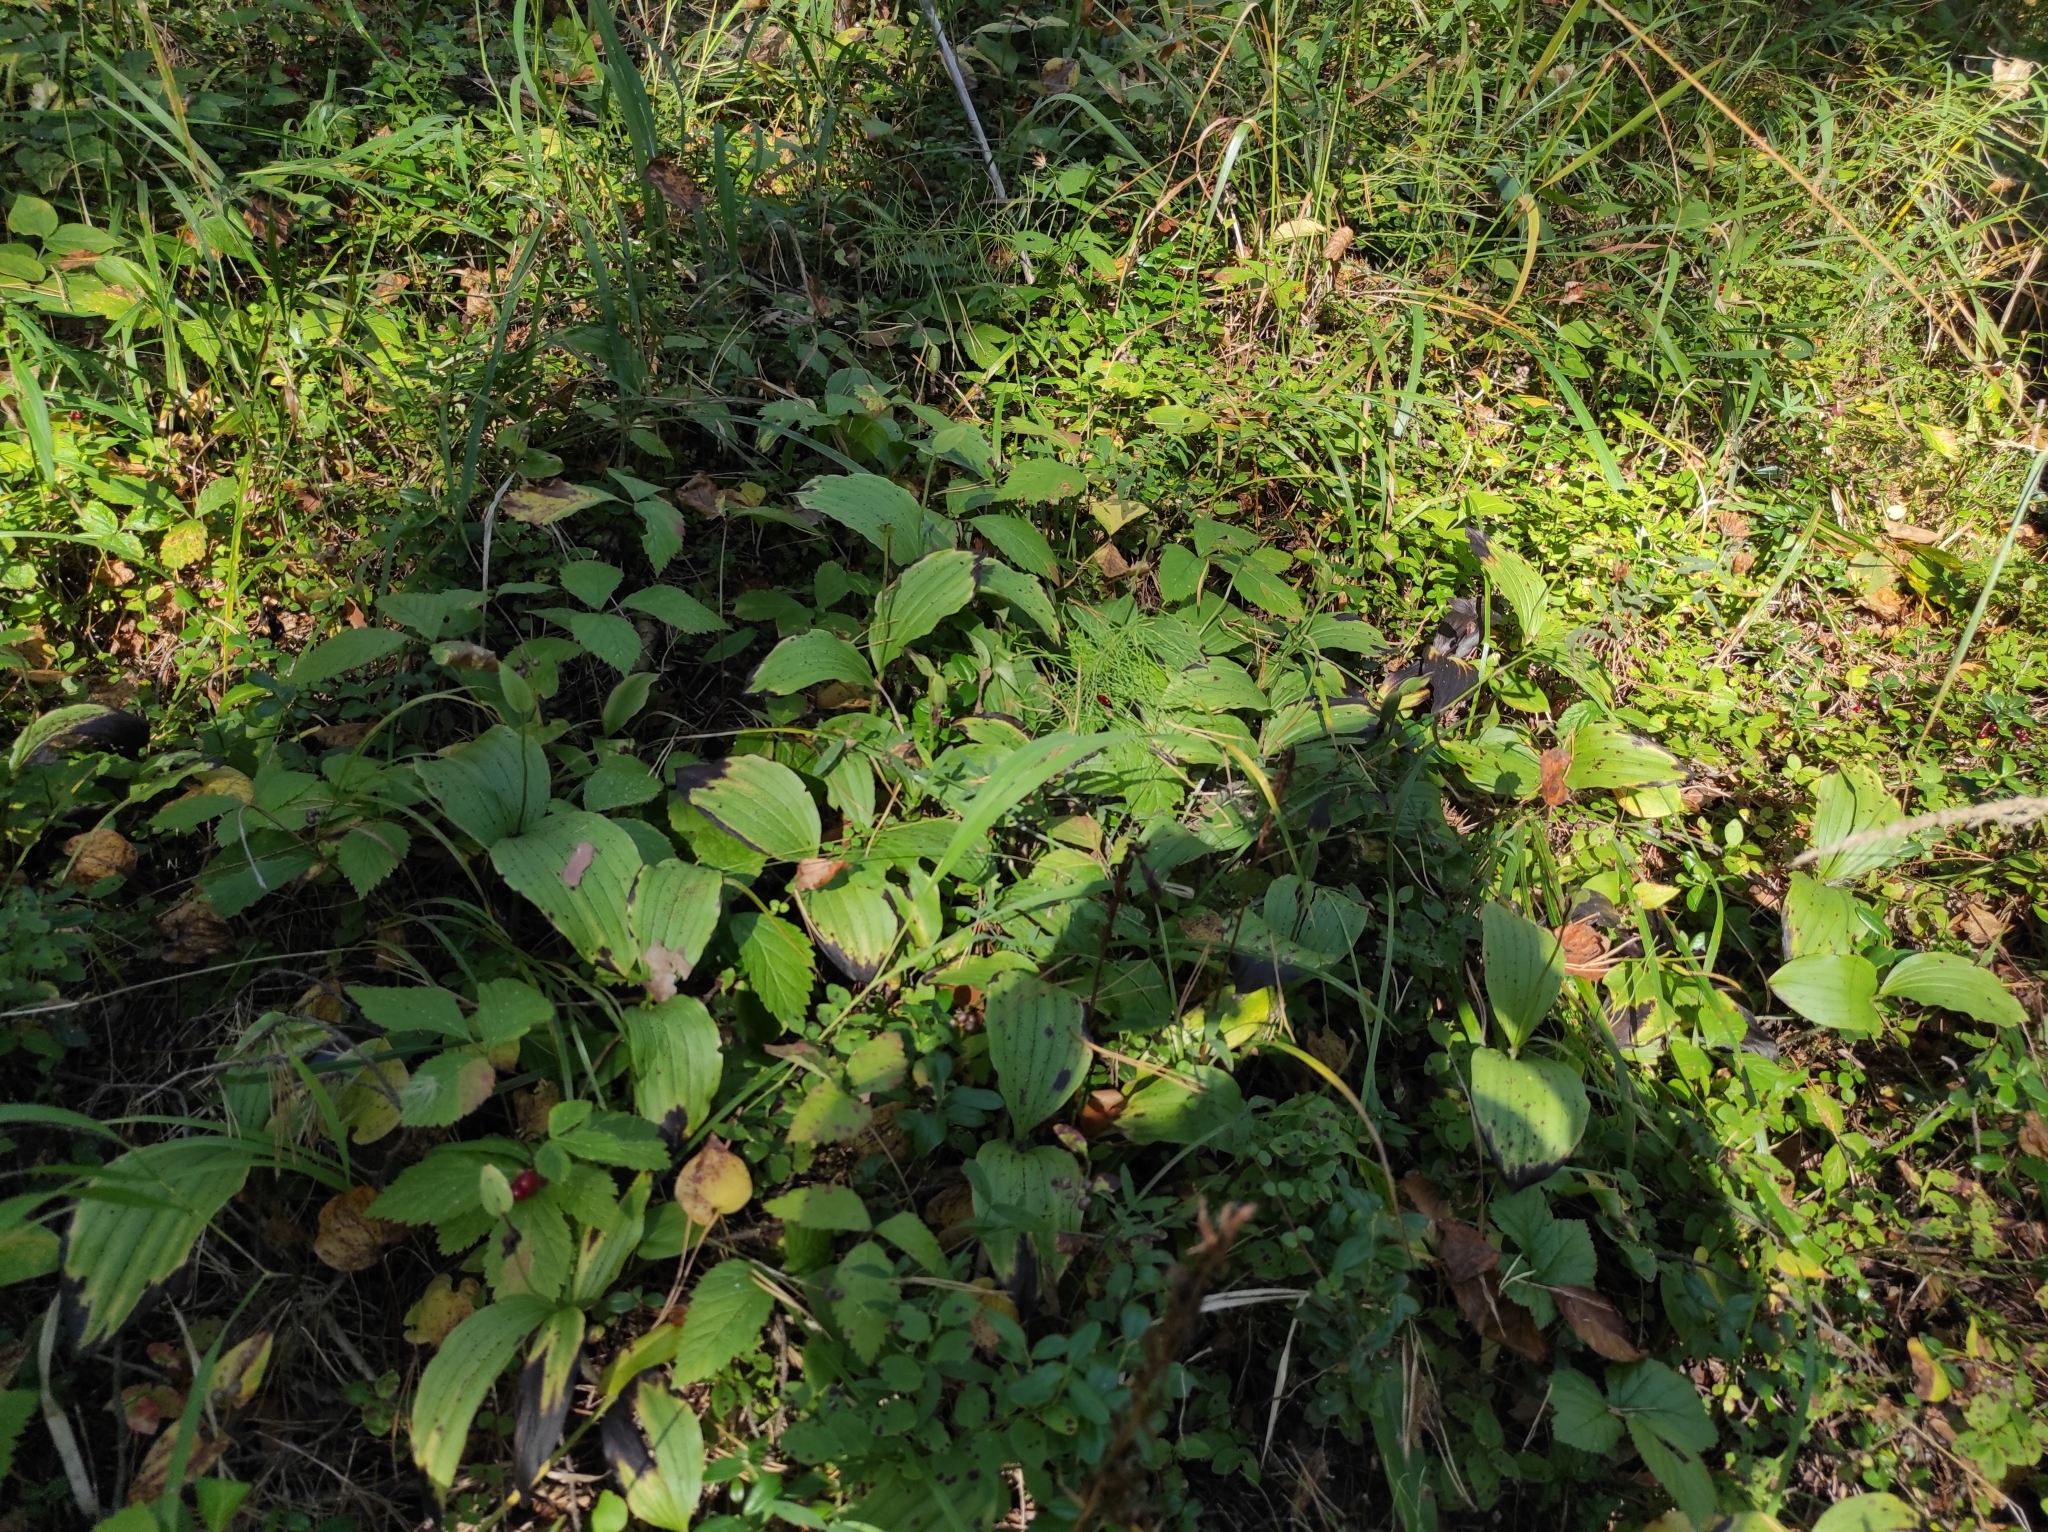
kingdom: Plantae
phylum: Tracheophyta
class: Liliopsida
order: Asparagales
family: Orchidaceae
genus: Cypripedium
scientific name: Cypripedium guttatum
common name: Pink lady slipper
